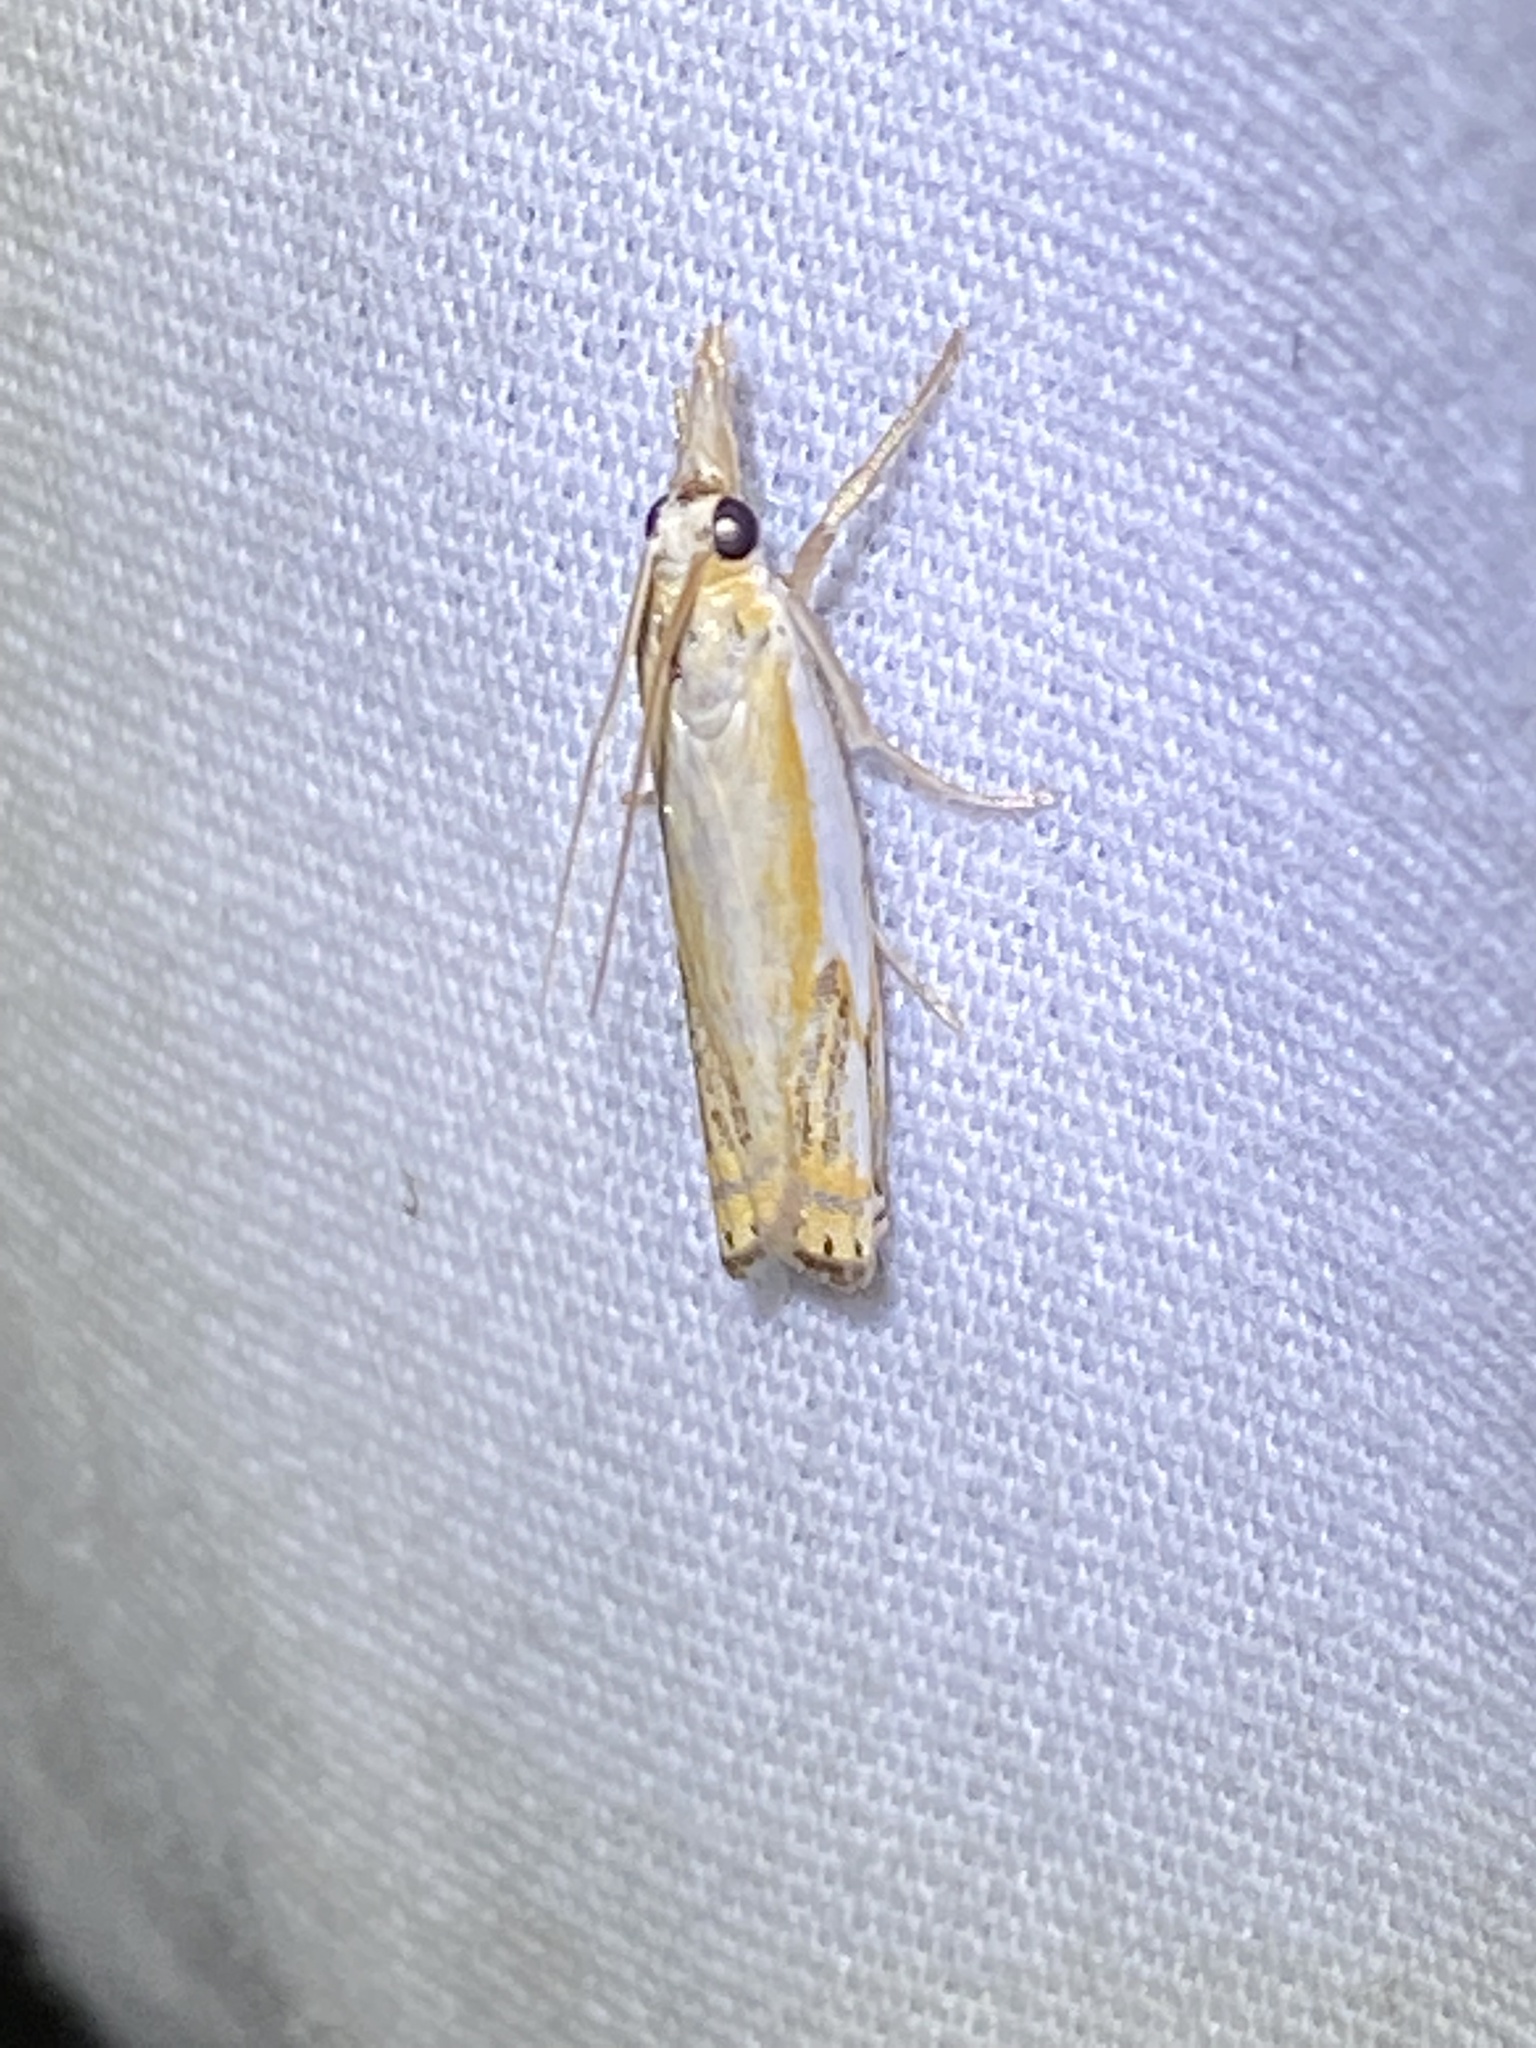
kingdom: Animalia
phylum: Arthropoda
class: Insecta
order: Lepidoptera
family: Crambidae
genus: Crambus
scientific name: Crambus agitatellus
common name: Double-banded grass-veneer
